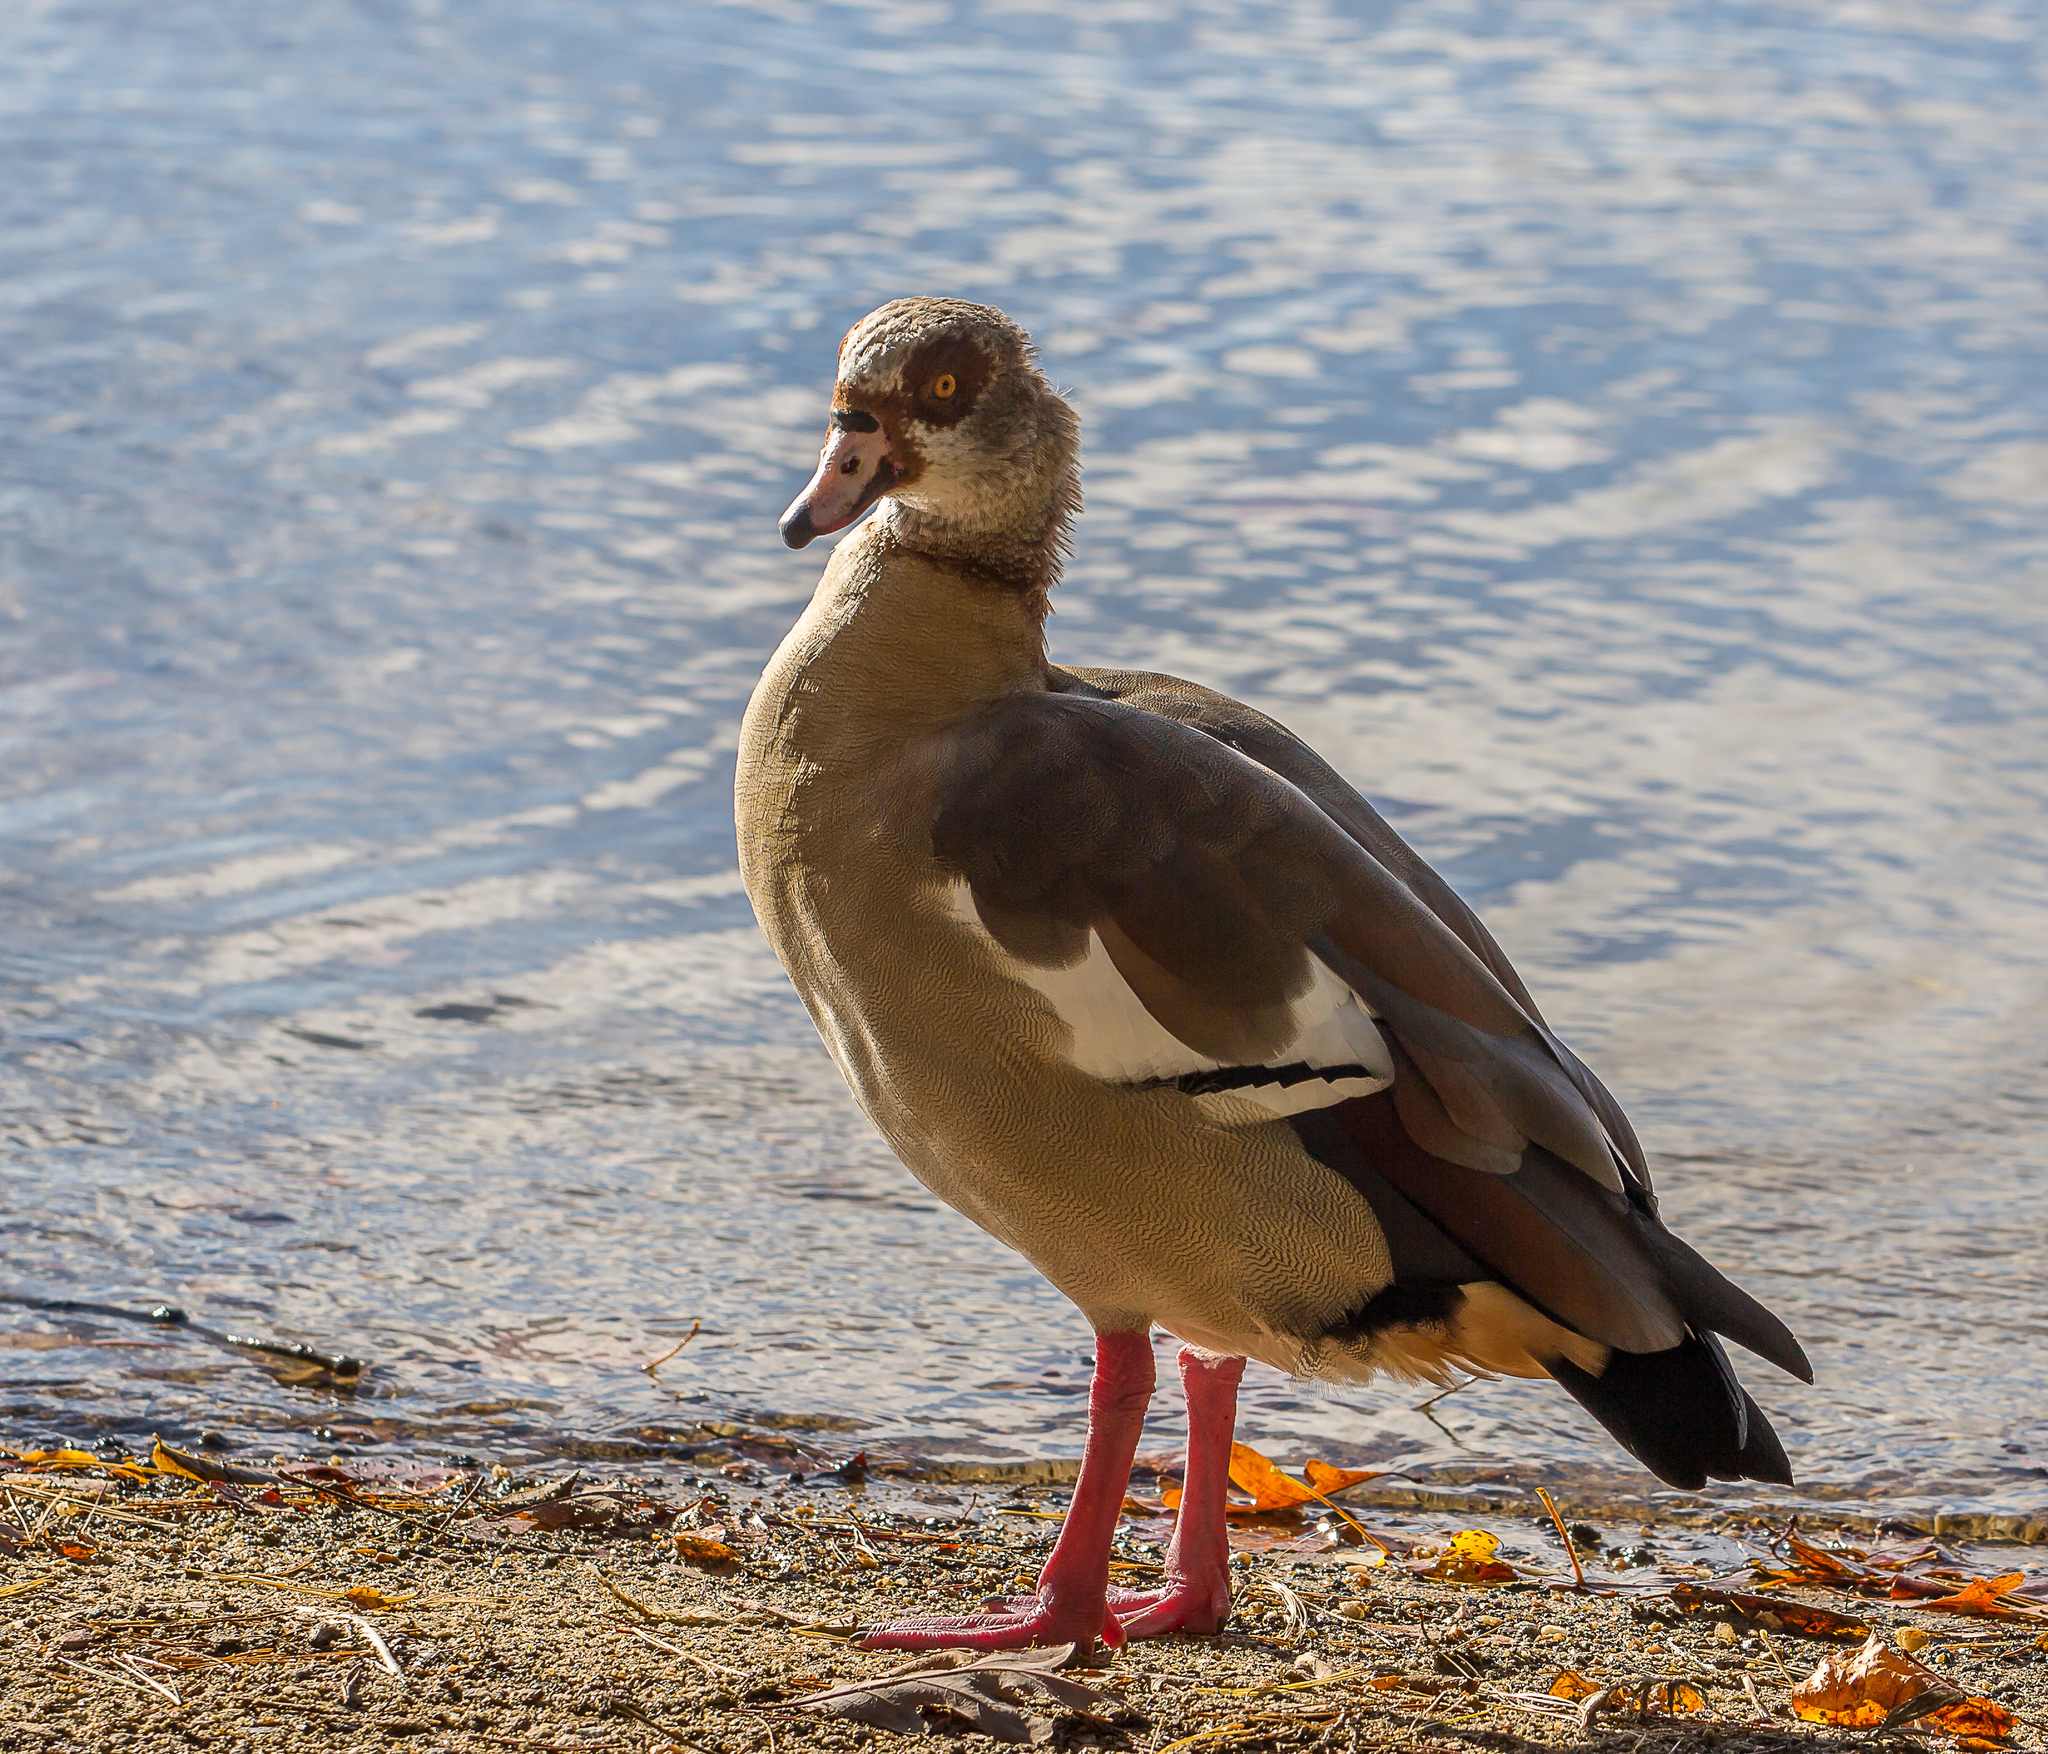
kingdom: Animalia
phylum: Chordata
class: Aves
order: Anseriformes
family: Anatidae
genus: Alopochen
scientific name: Alopochen aegyptiaca
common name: Egyptian goose
